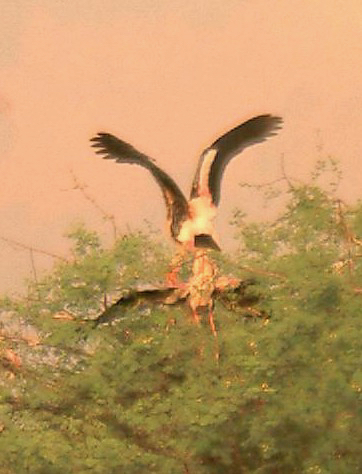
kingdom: Animalia
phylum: Chordata
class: Aves
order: Ciconiiformes
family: Ciconiidae
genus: Mycteria
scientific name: Mycteria leucocephala
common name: Painted stork
